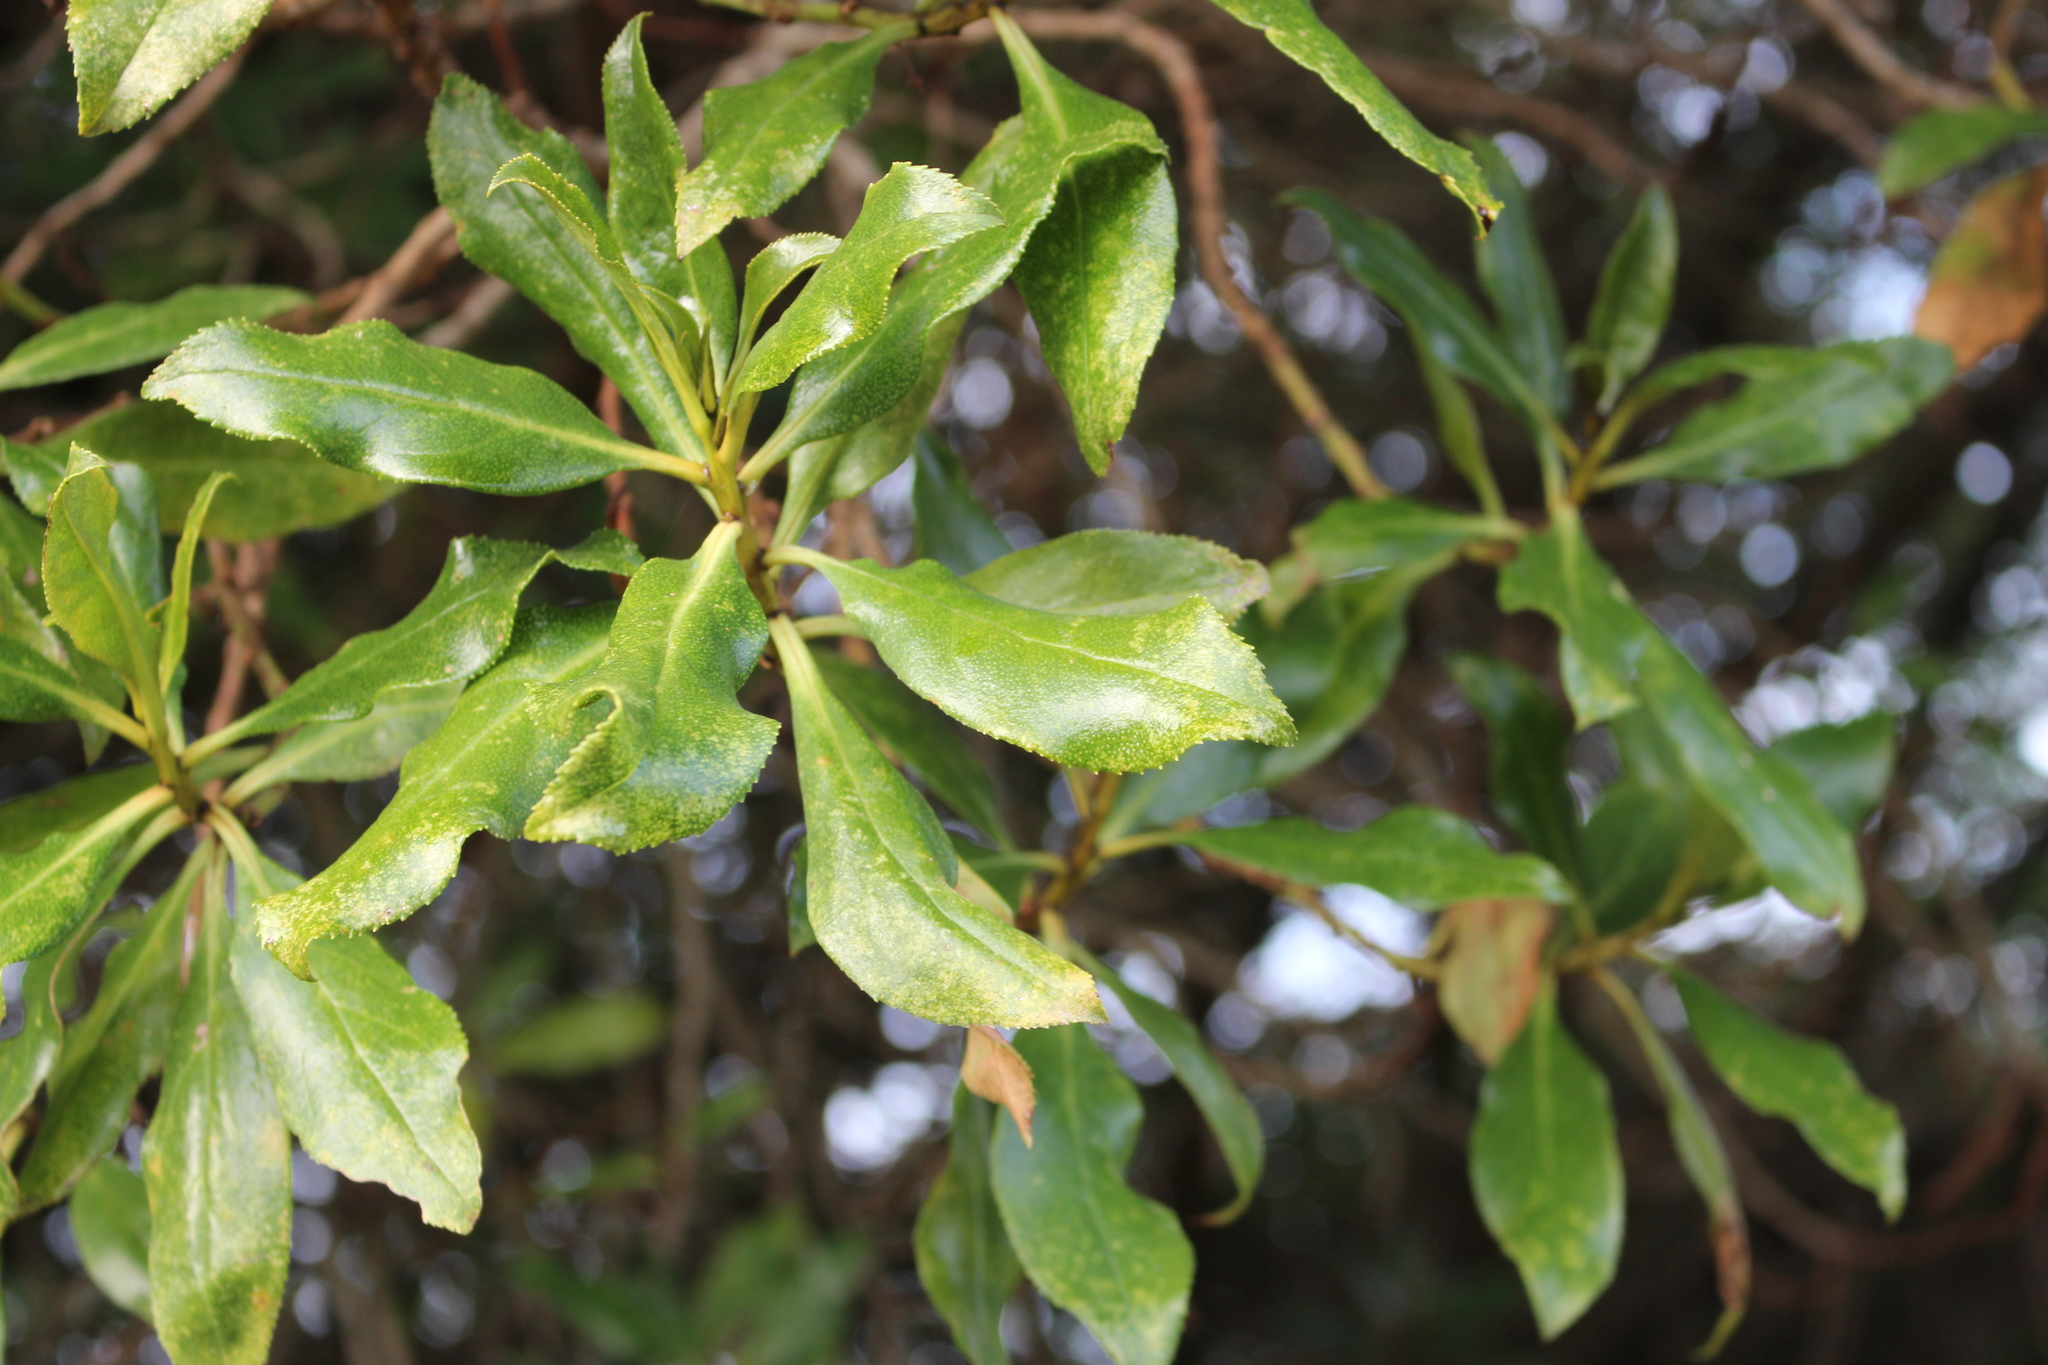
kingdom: Plantae
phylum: Tracheophyta
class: Magnoliopsida
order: Lamiales
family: Scrophulariaceae
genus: Myoporum
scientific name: Myoporum laetum
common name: Ngaio tree
